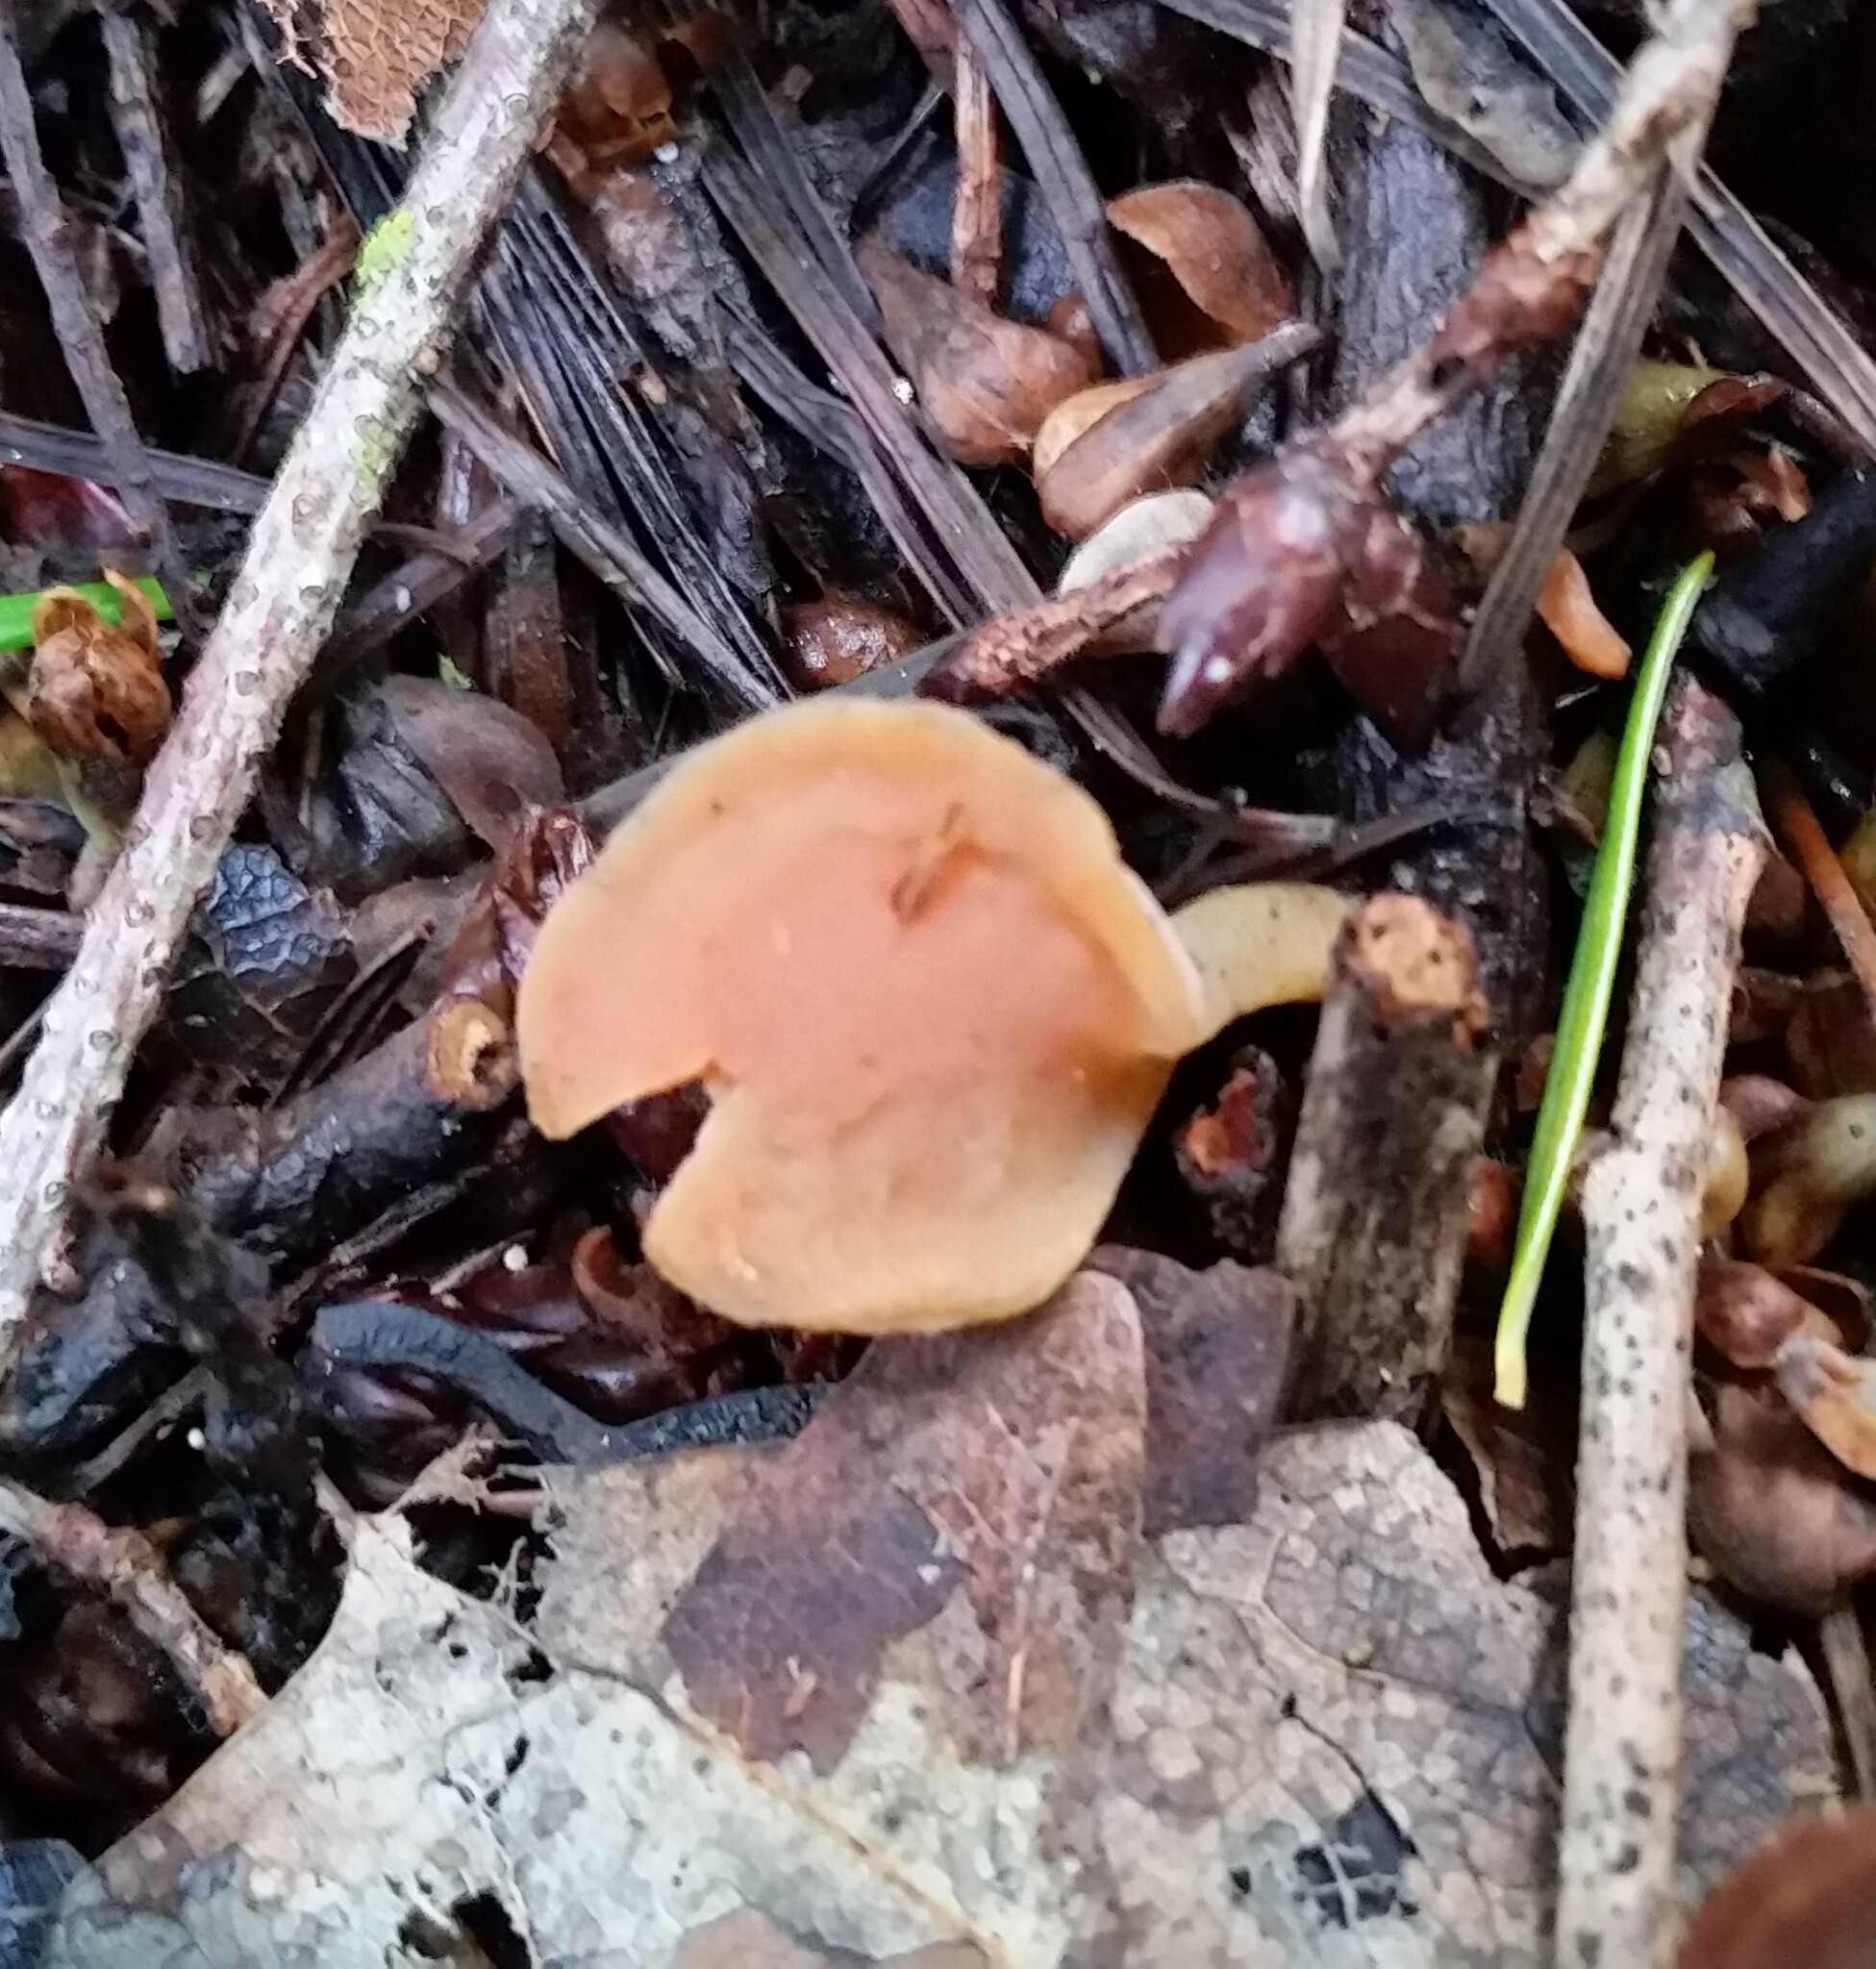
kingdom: Fungi
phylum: Basidiomycota
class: Agaricomycetes
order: Auriculariales
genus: Guepinia
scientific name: Guepinia helvelloides
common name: Salmon salad
